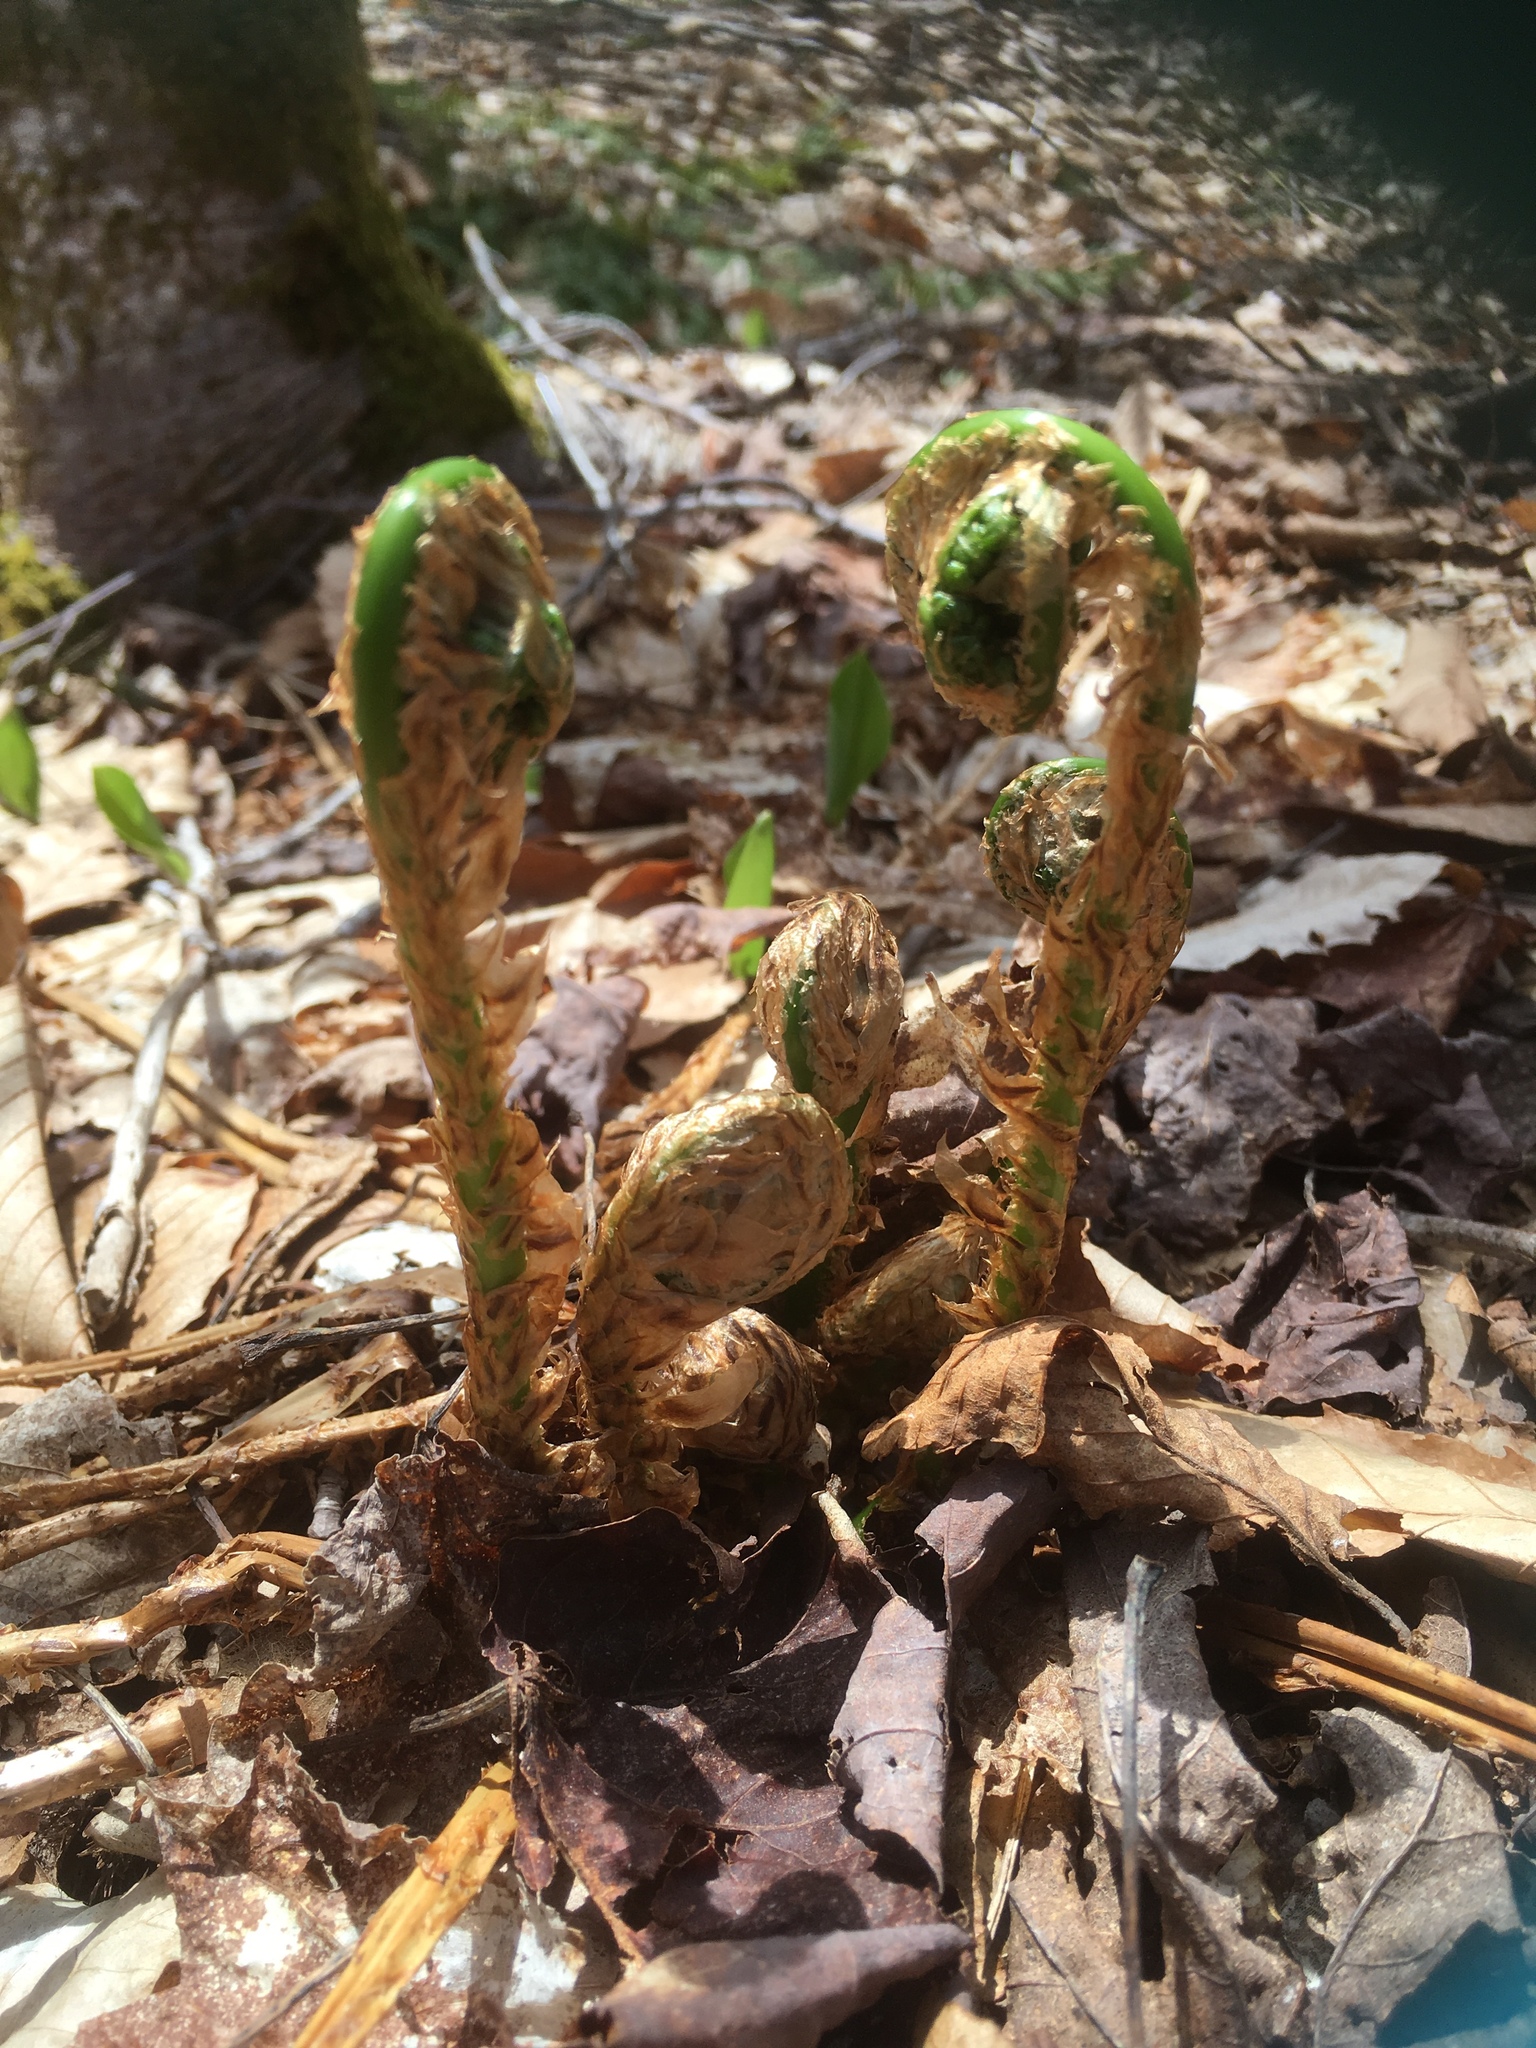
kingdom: Plantae
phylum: Tracheophyta
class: Polypodiopsida
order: Polypodiales
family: Onocleaceae
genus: Matteuccia
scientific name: Matteuccia struthiopteris
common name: Ostrich fern
